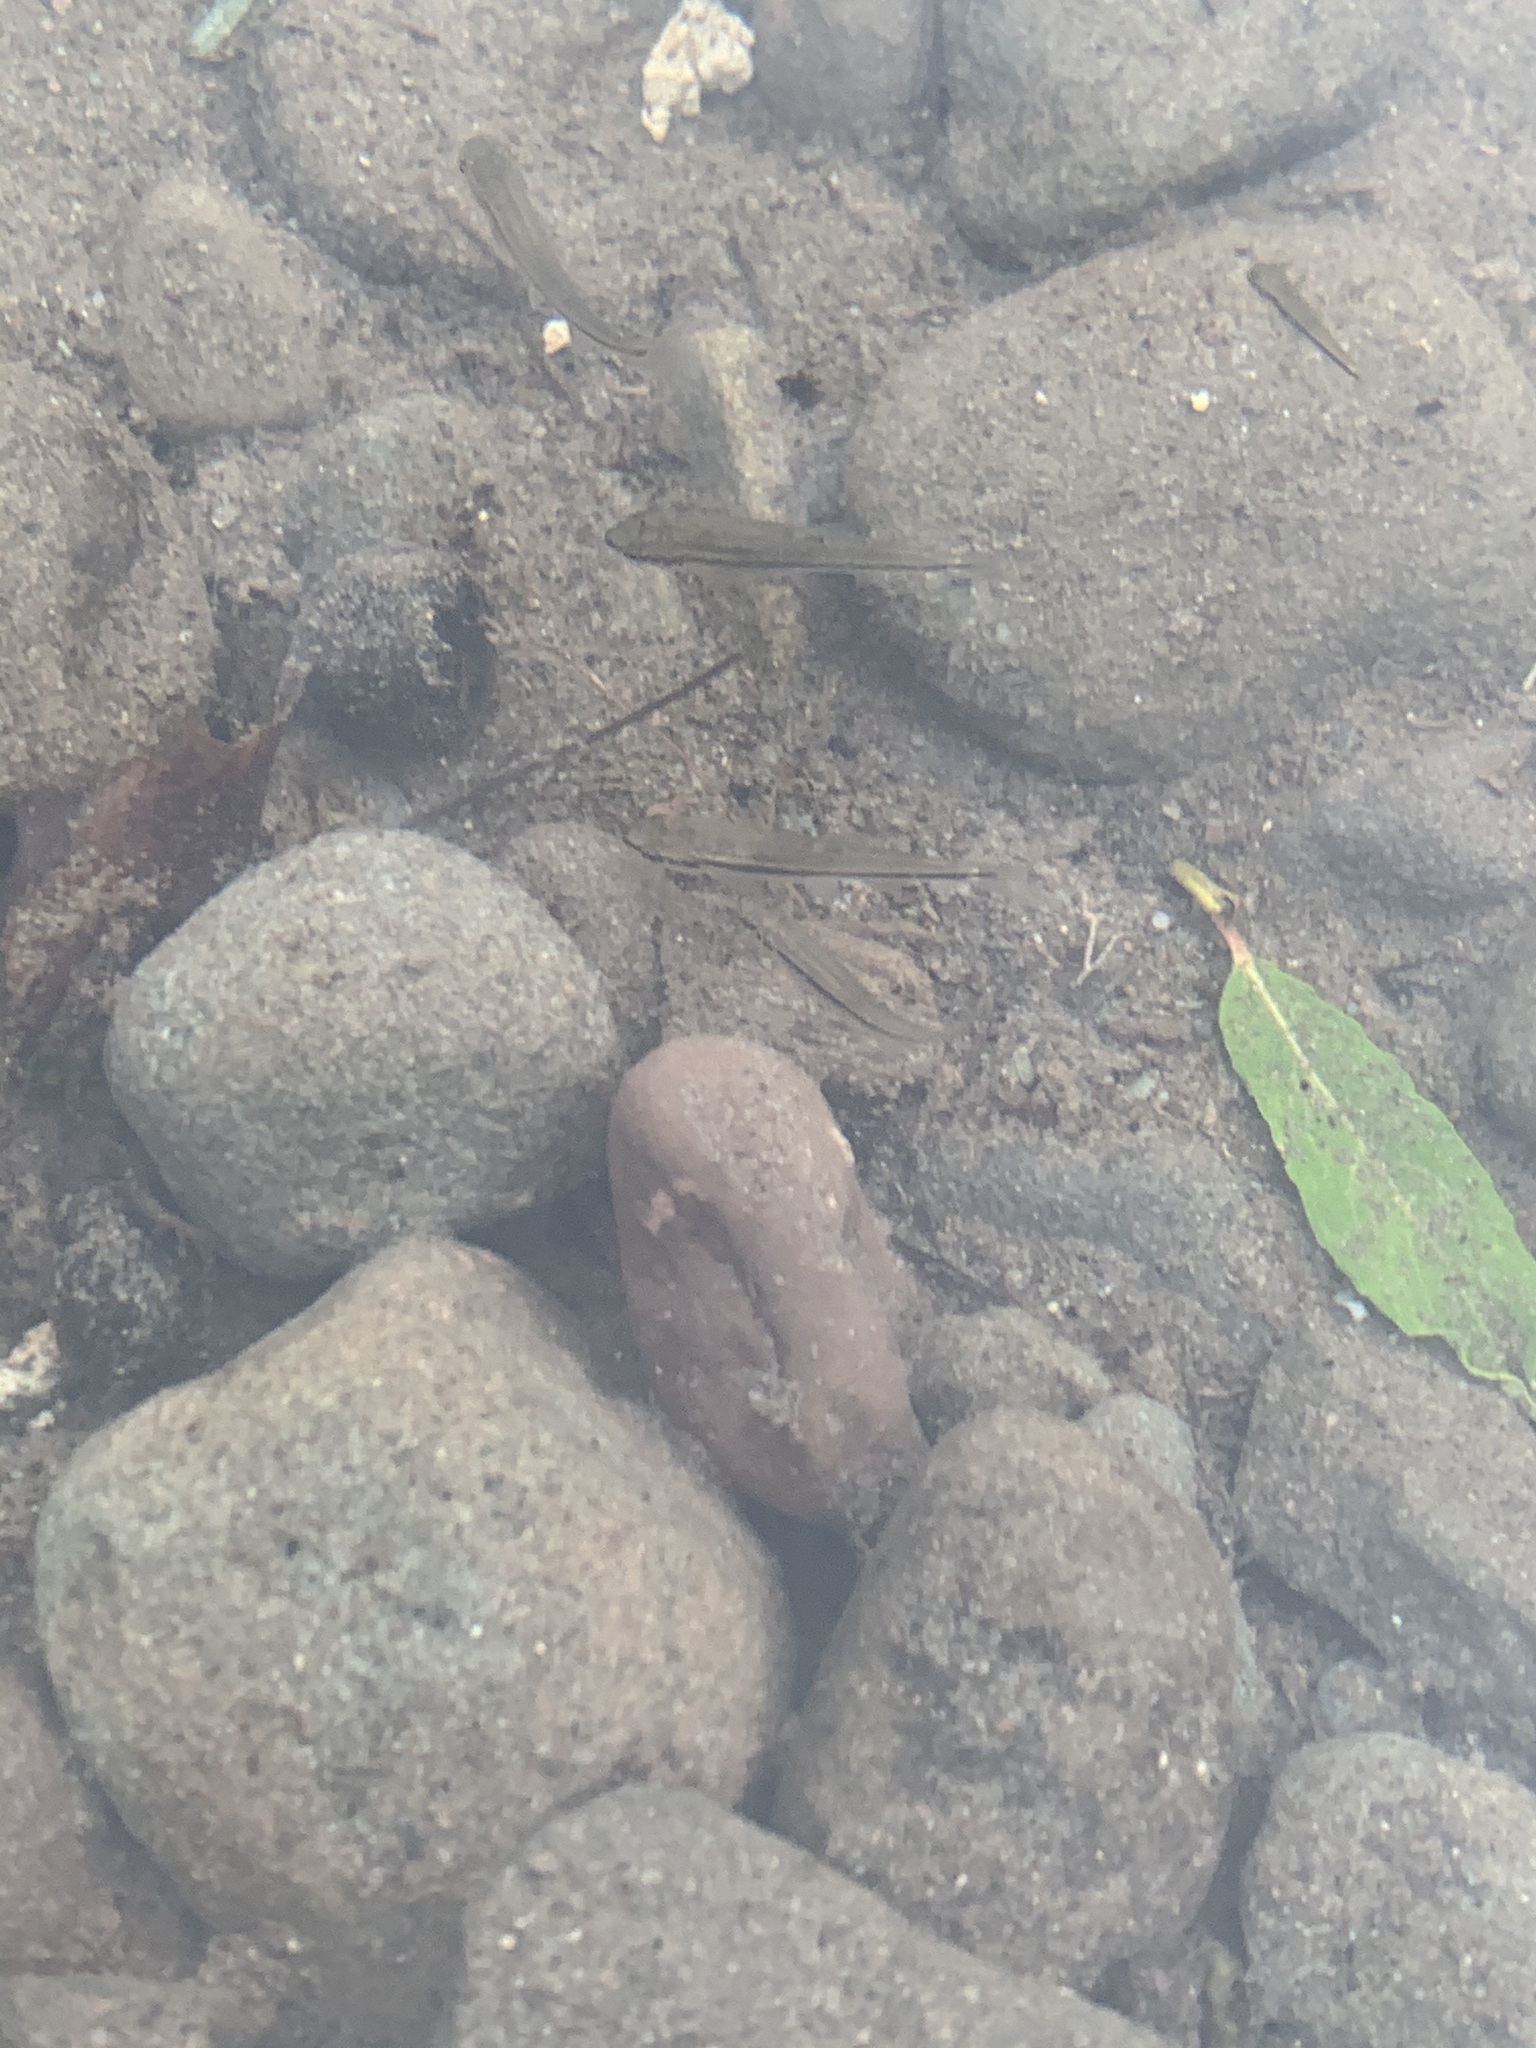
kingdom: Animalia
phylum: Chordata
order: Cypriniformes
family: Cyprinidae
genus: Rhinichthys
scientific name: Rhinichthys atratulus
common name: Eastern blacknose dace
